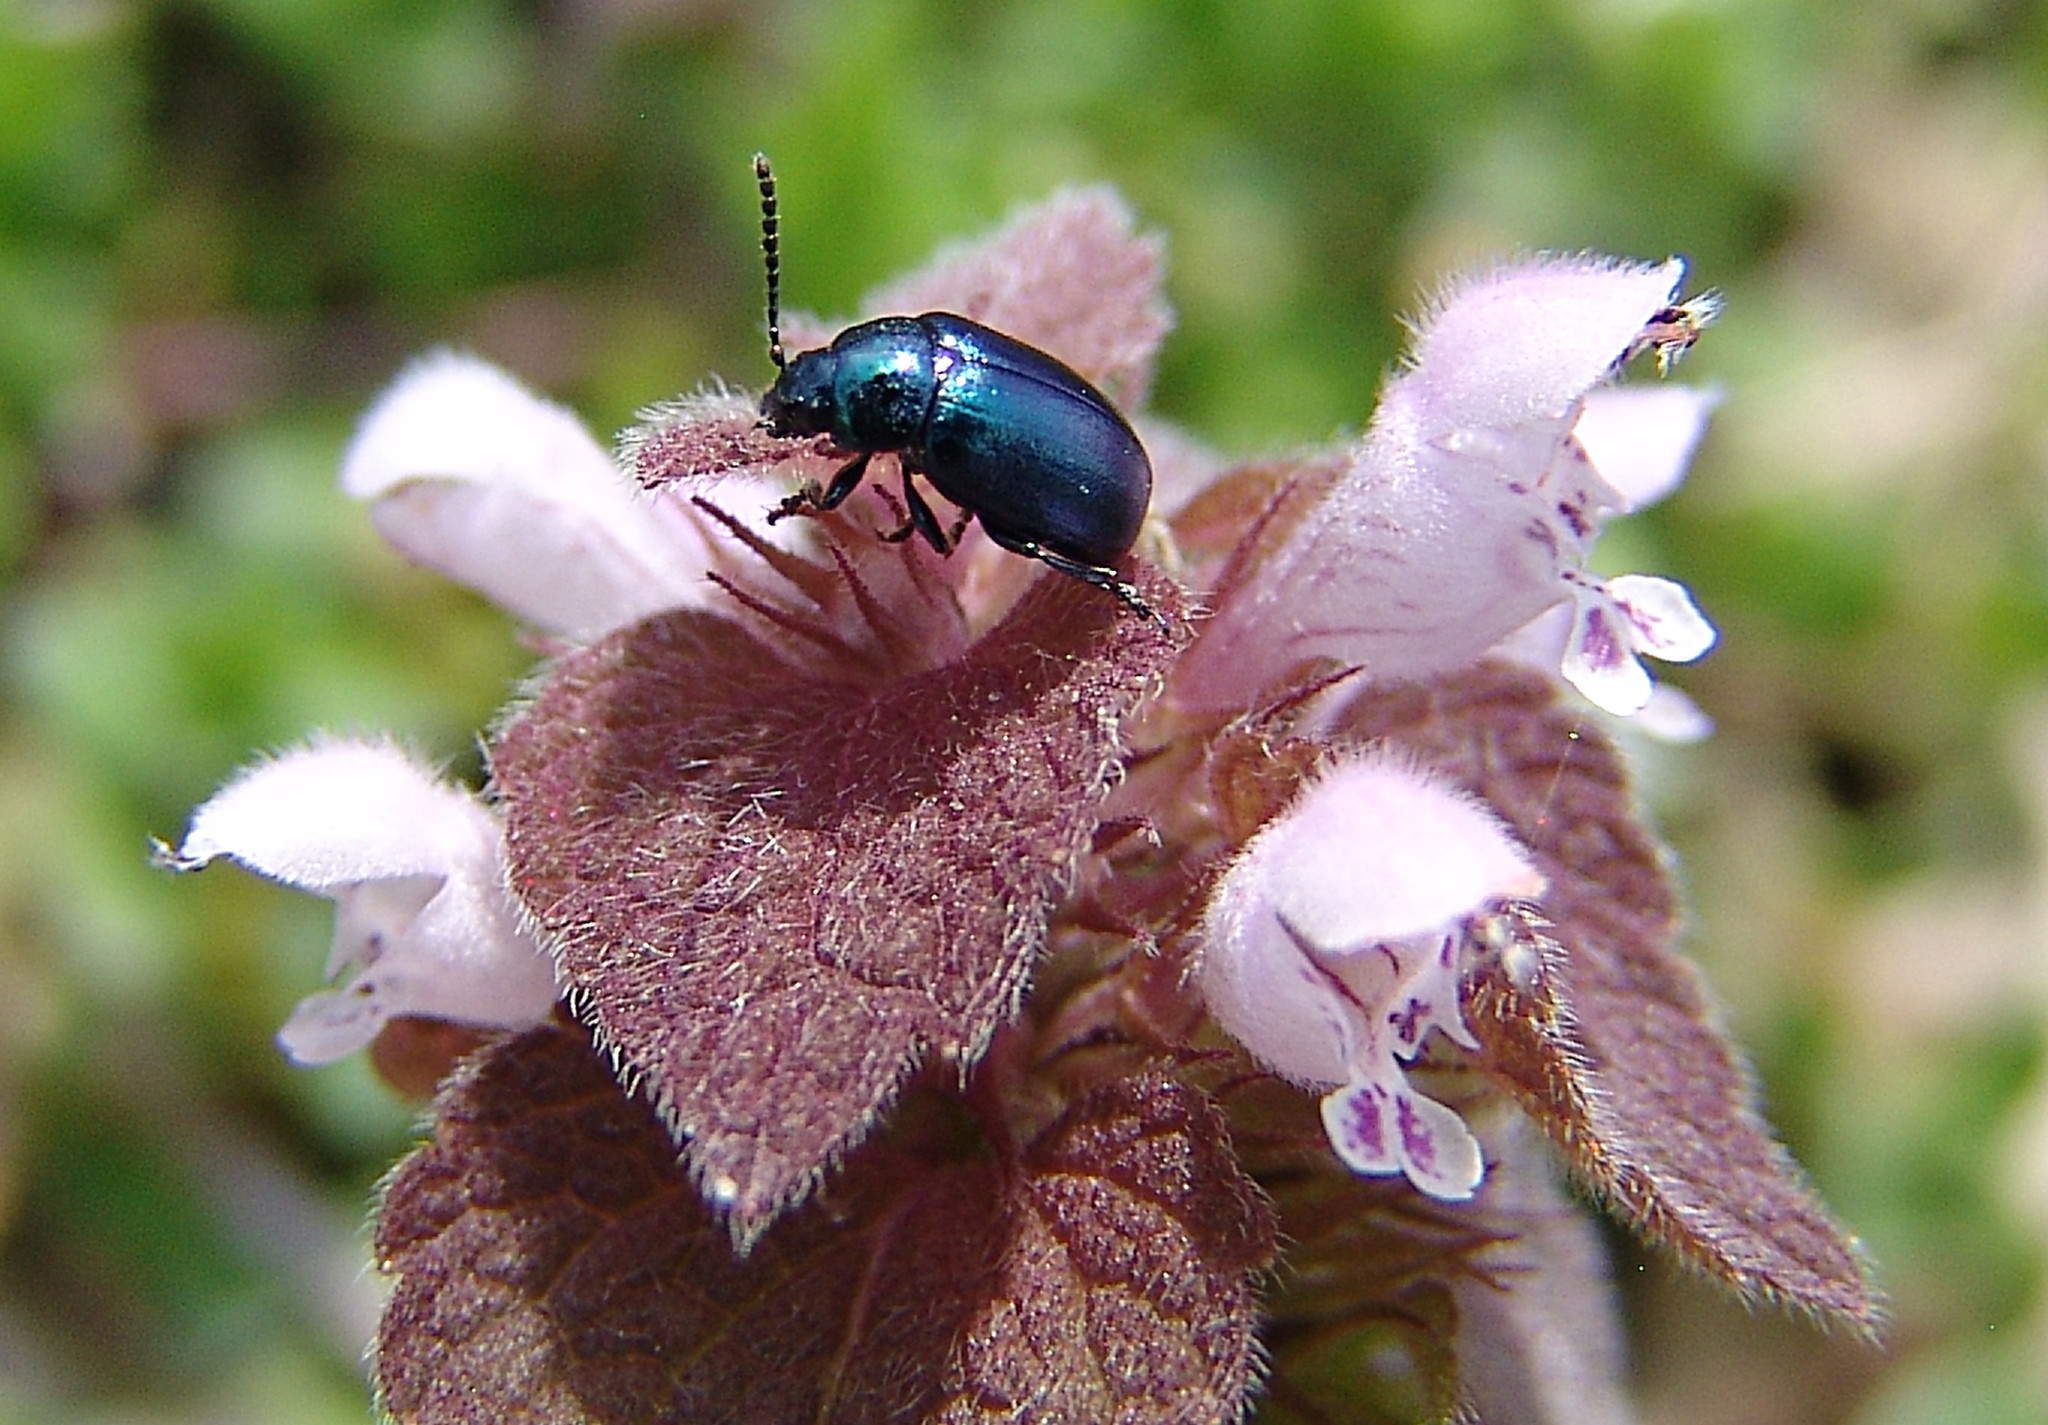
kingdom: Animalia
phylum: Arthropoda
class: Insecta
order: Coleoptera
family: Chrysomelidae
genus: Gastrophysa
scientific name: Gastrophysa cyanea
